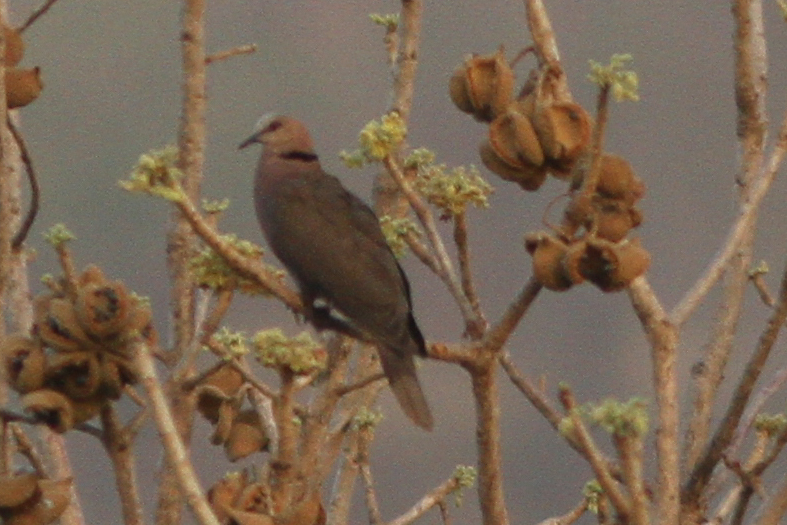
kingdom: Animalia
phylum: Chordata
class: Aves
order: Columbiformes
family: Columbidae
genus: Streptopelia
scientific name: Streptopelia semitorquata
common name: Red-eyed dove
